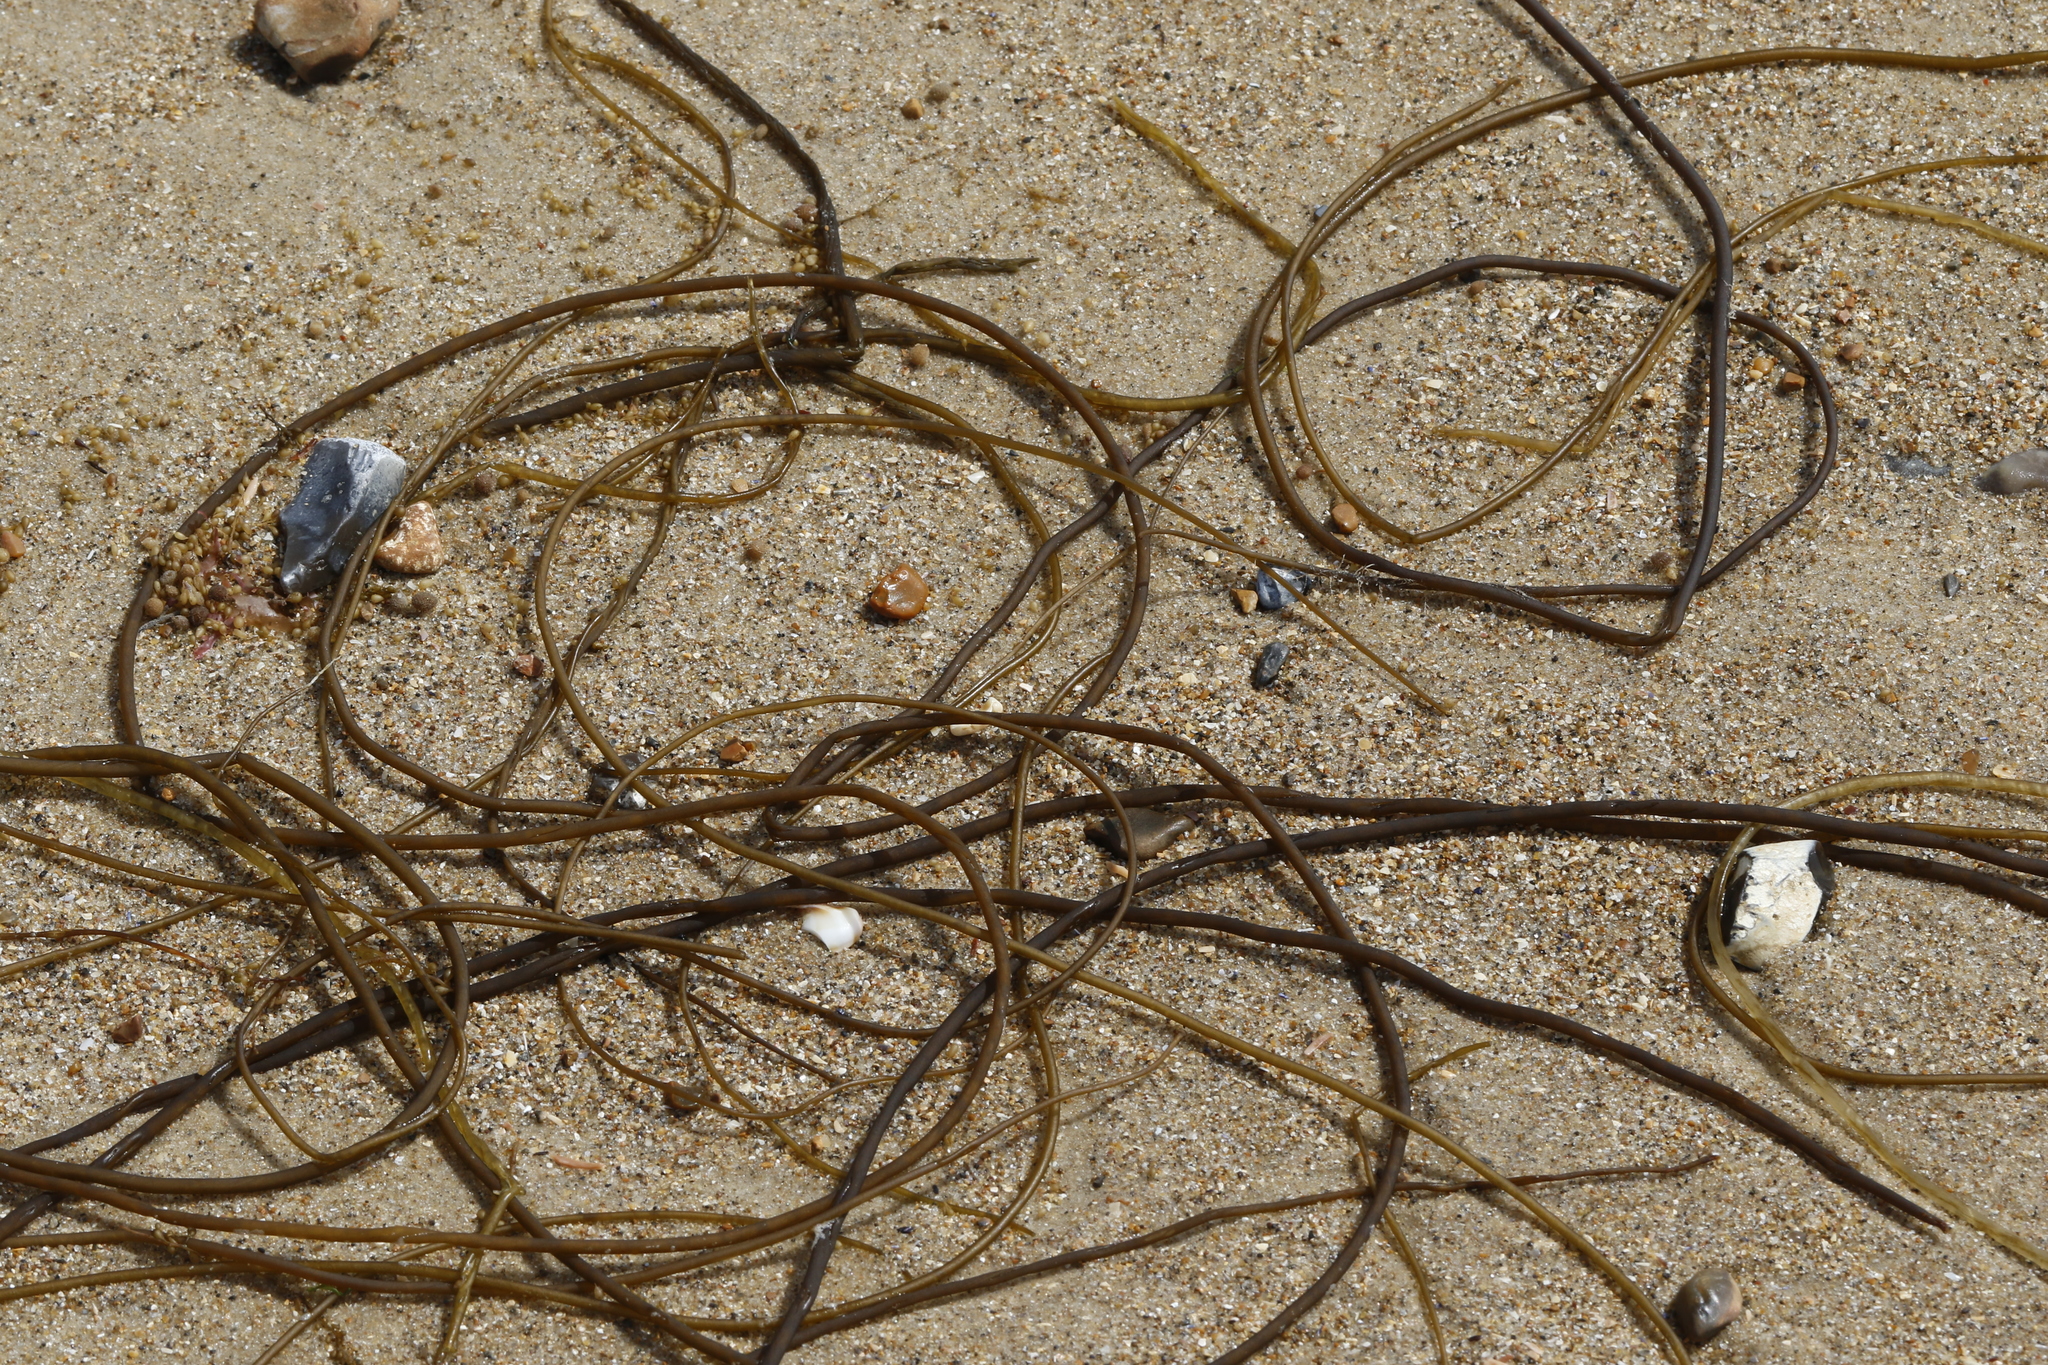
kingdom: Chromista
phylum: Ochrophyta
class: Phaeophyceae
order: Fucales
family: Himanthaliaceae
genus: Himanthalia
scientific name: Himanthalia elongata
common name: Sea-thong
